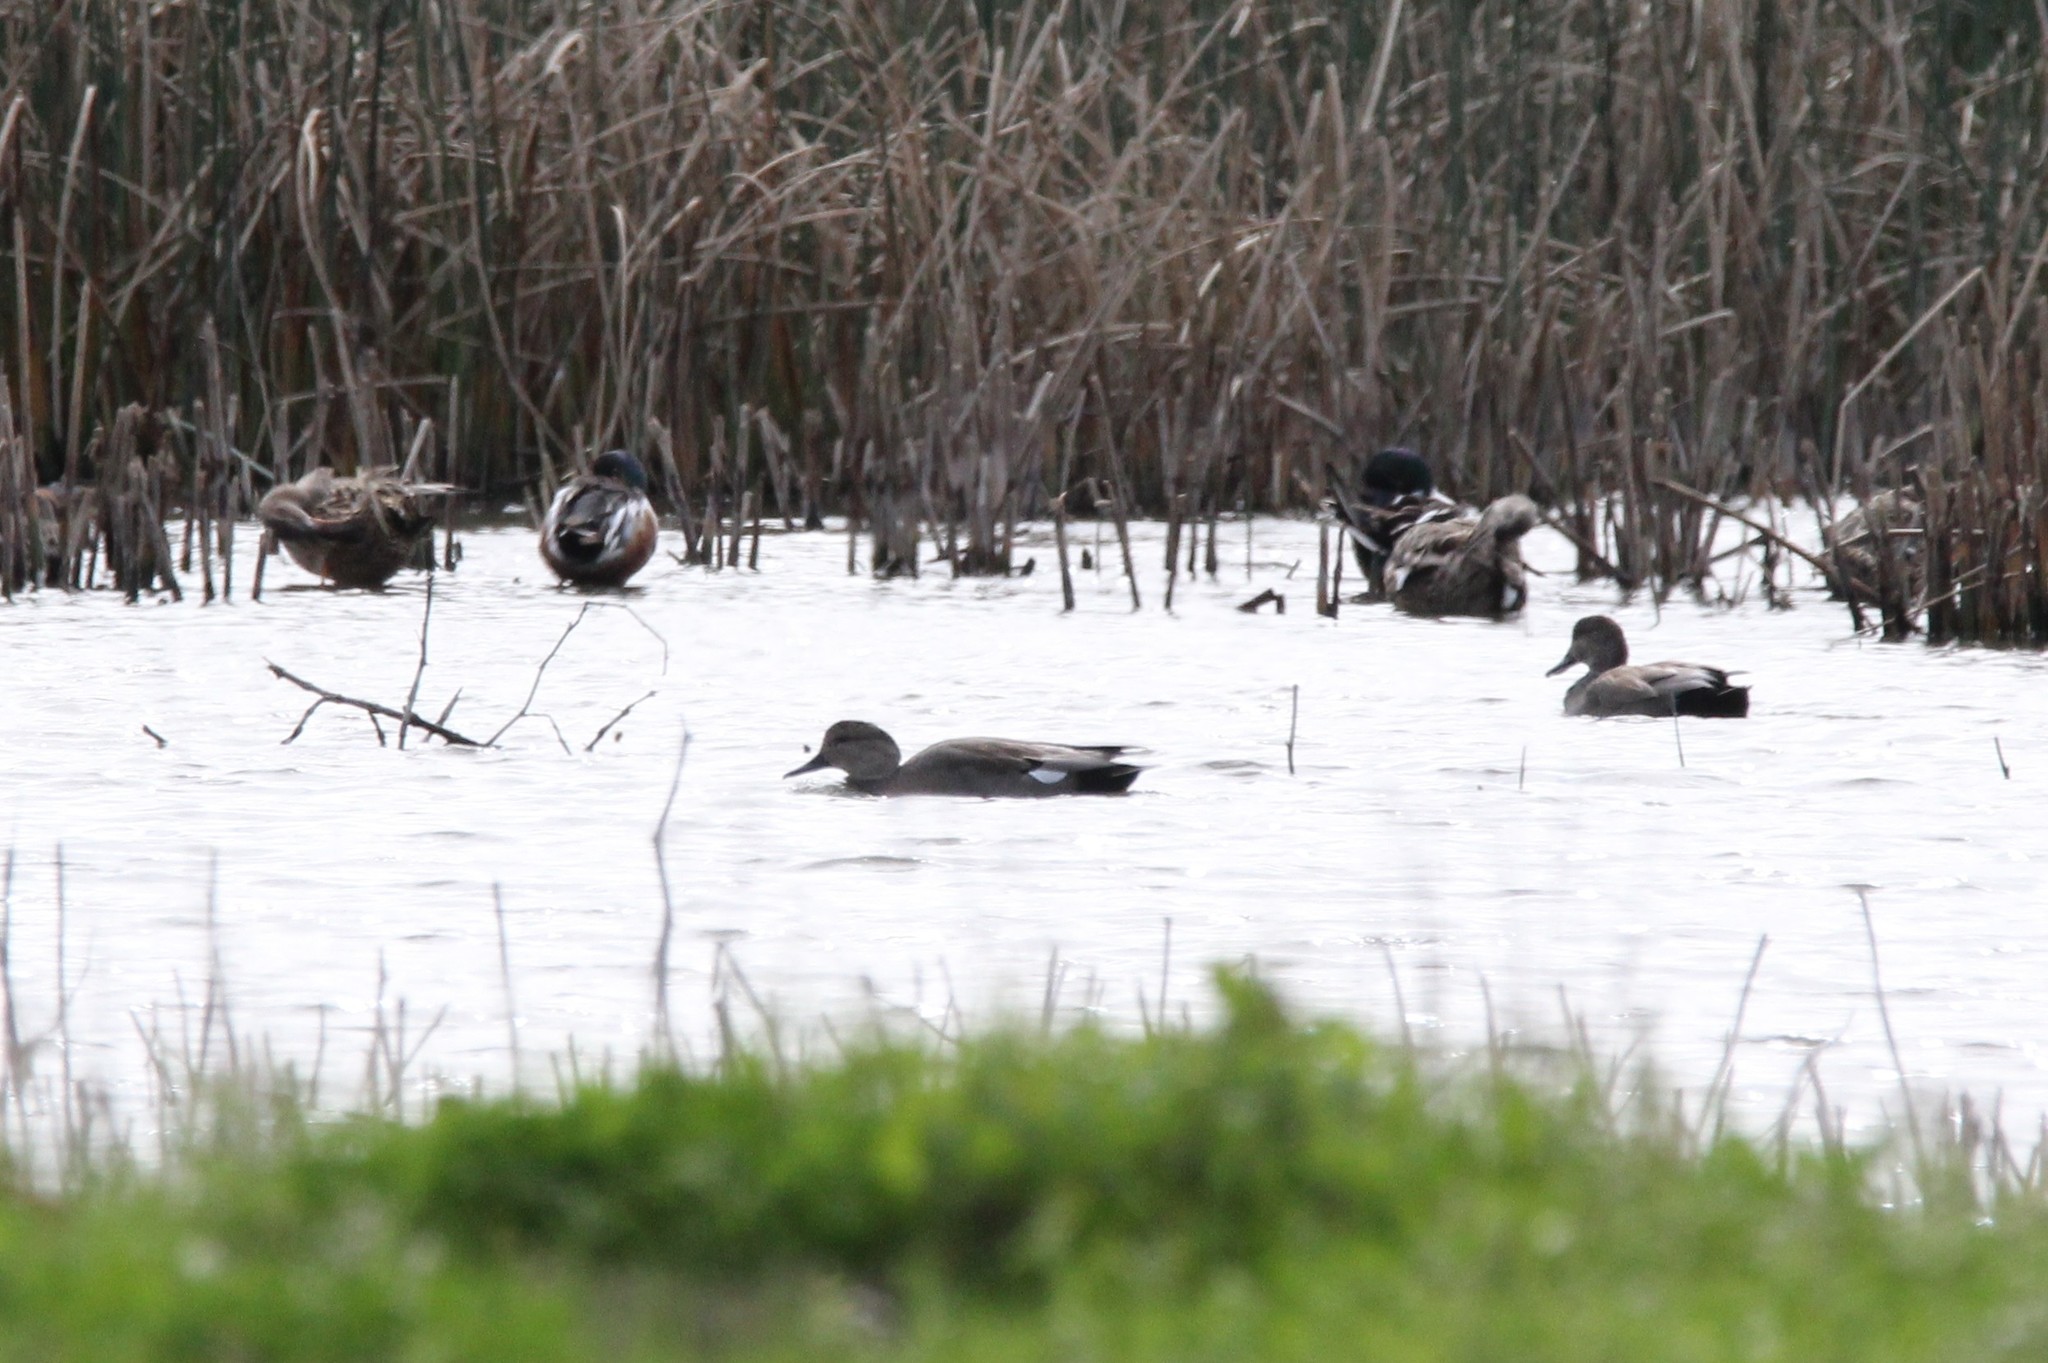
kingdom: Animalia
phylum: Chordata
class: Aves
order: Anseriformes
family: Anatidae
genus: Mareca
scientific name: Mareca strepera
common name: Gadwall
